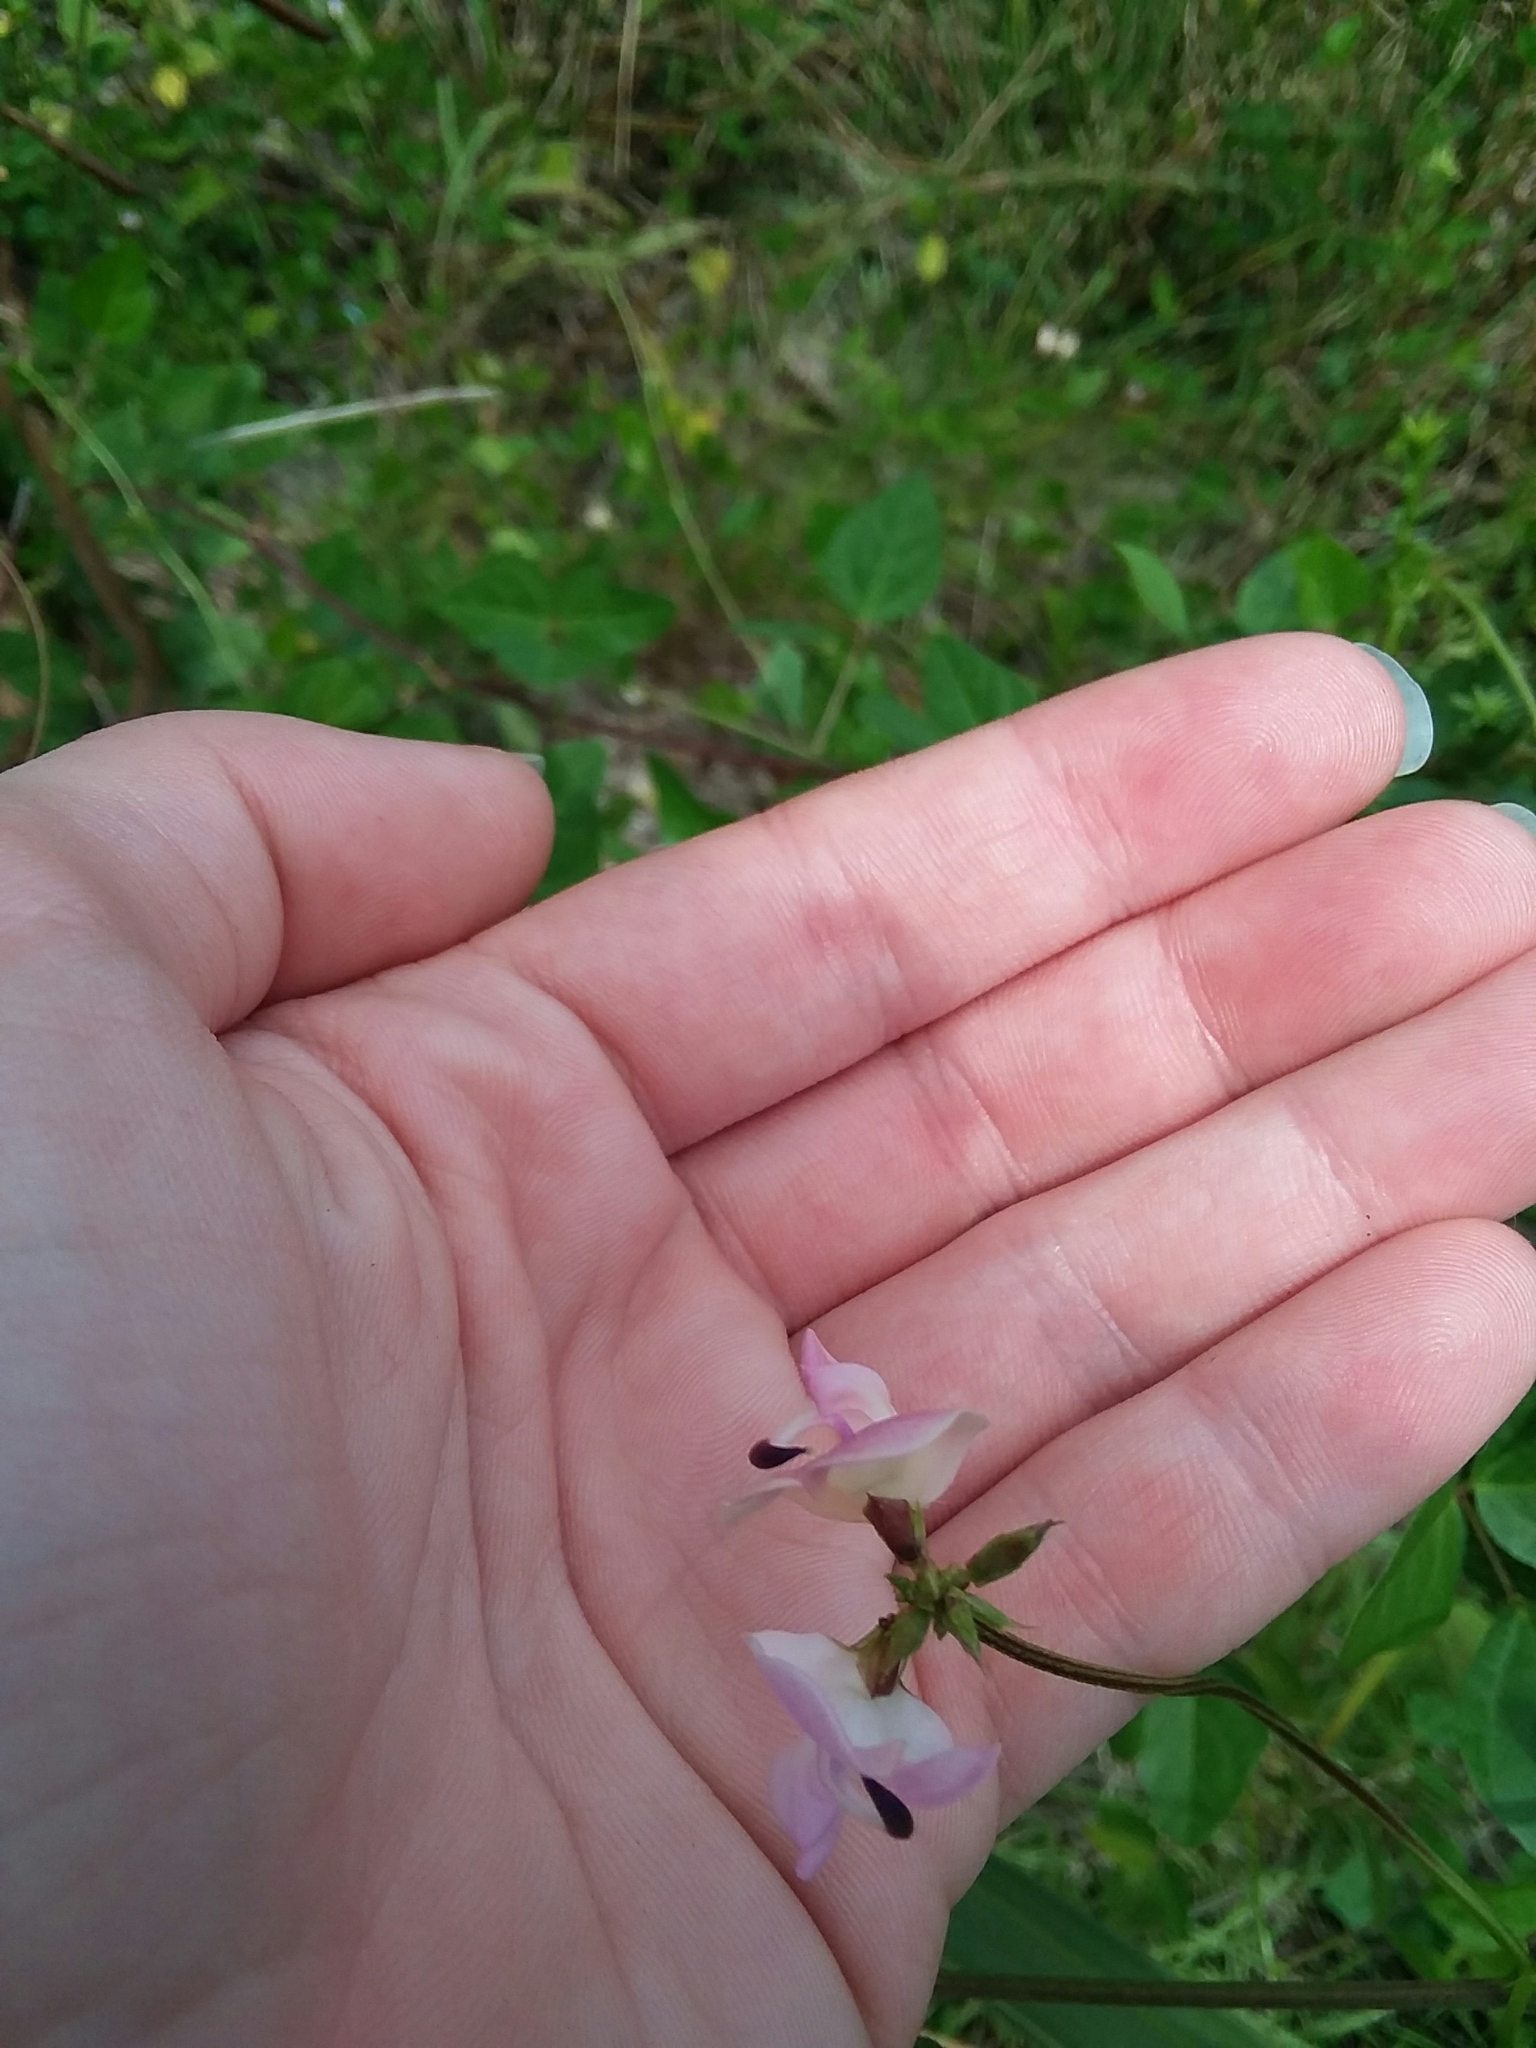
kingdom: Plantae
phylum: Tracheophyta
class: Magnoliopsida
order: Fabales
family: Fabaceae
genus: Strophostyles
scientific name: Strophostyles helvola
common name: Trailing wild bean
